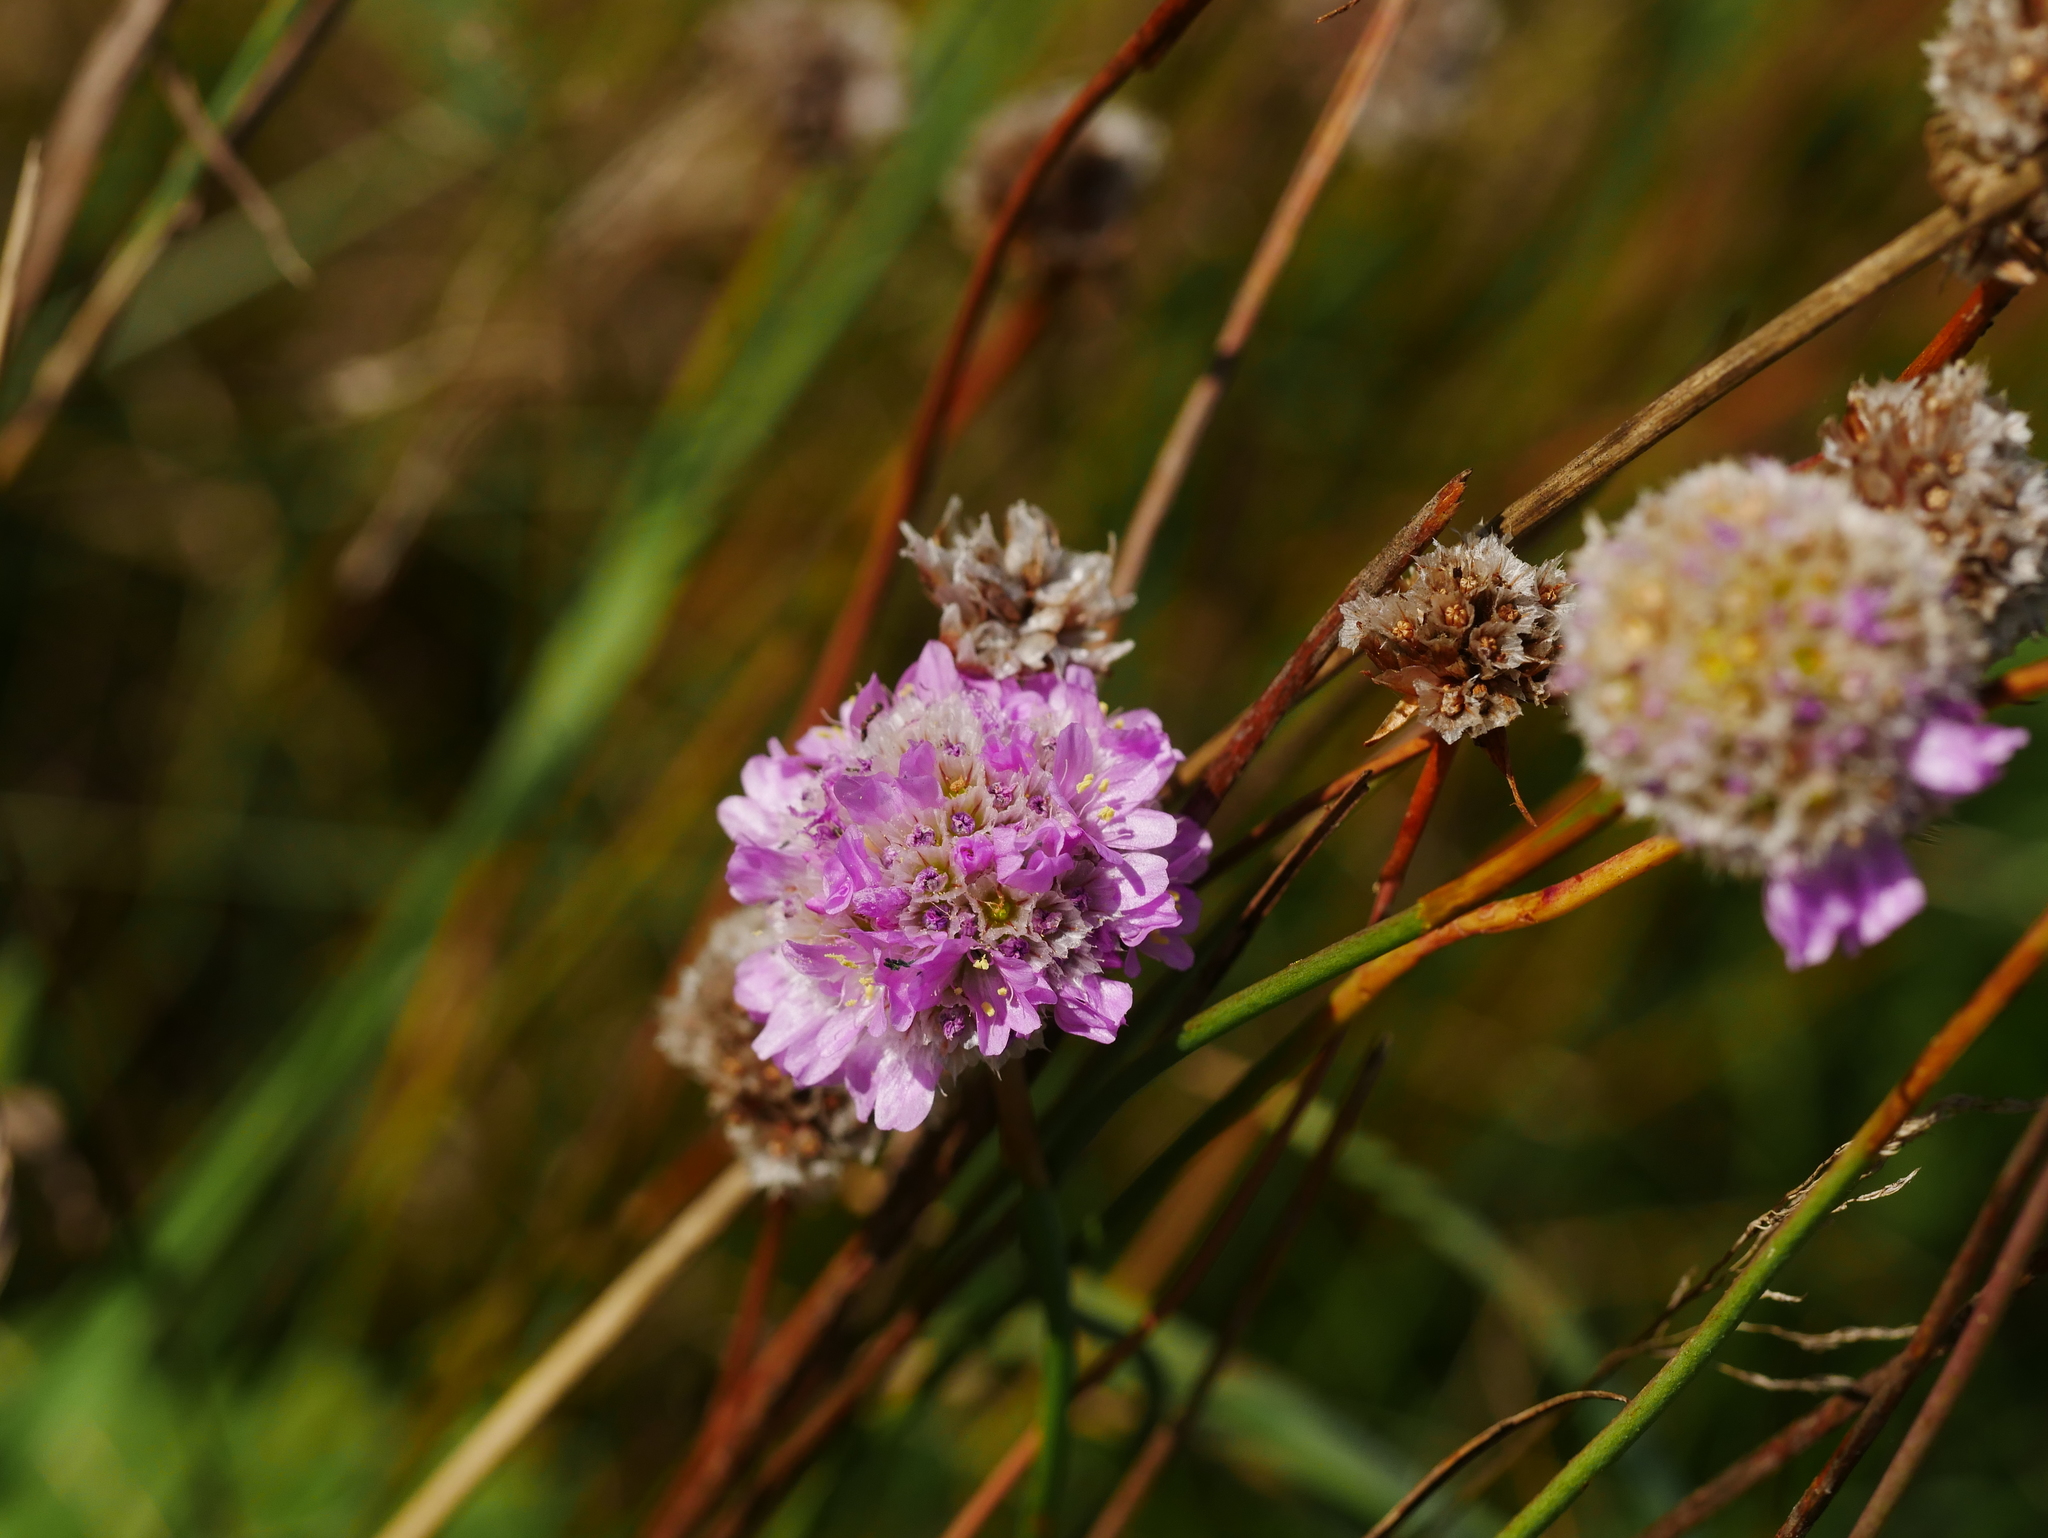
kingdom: Plantae
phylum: Tracheophyta
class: Magnoliopsida
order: Caryophyllales
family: Plumbaginaceae
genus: Armeria
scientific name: Armeria maritima
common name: Thrift
